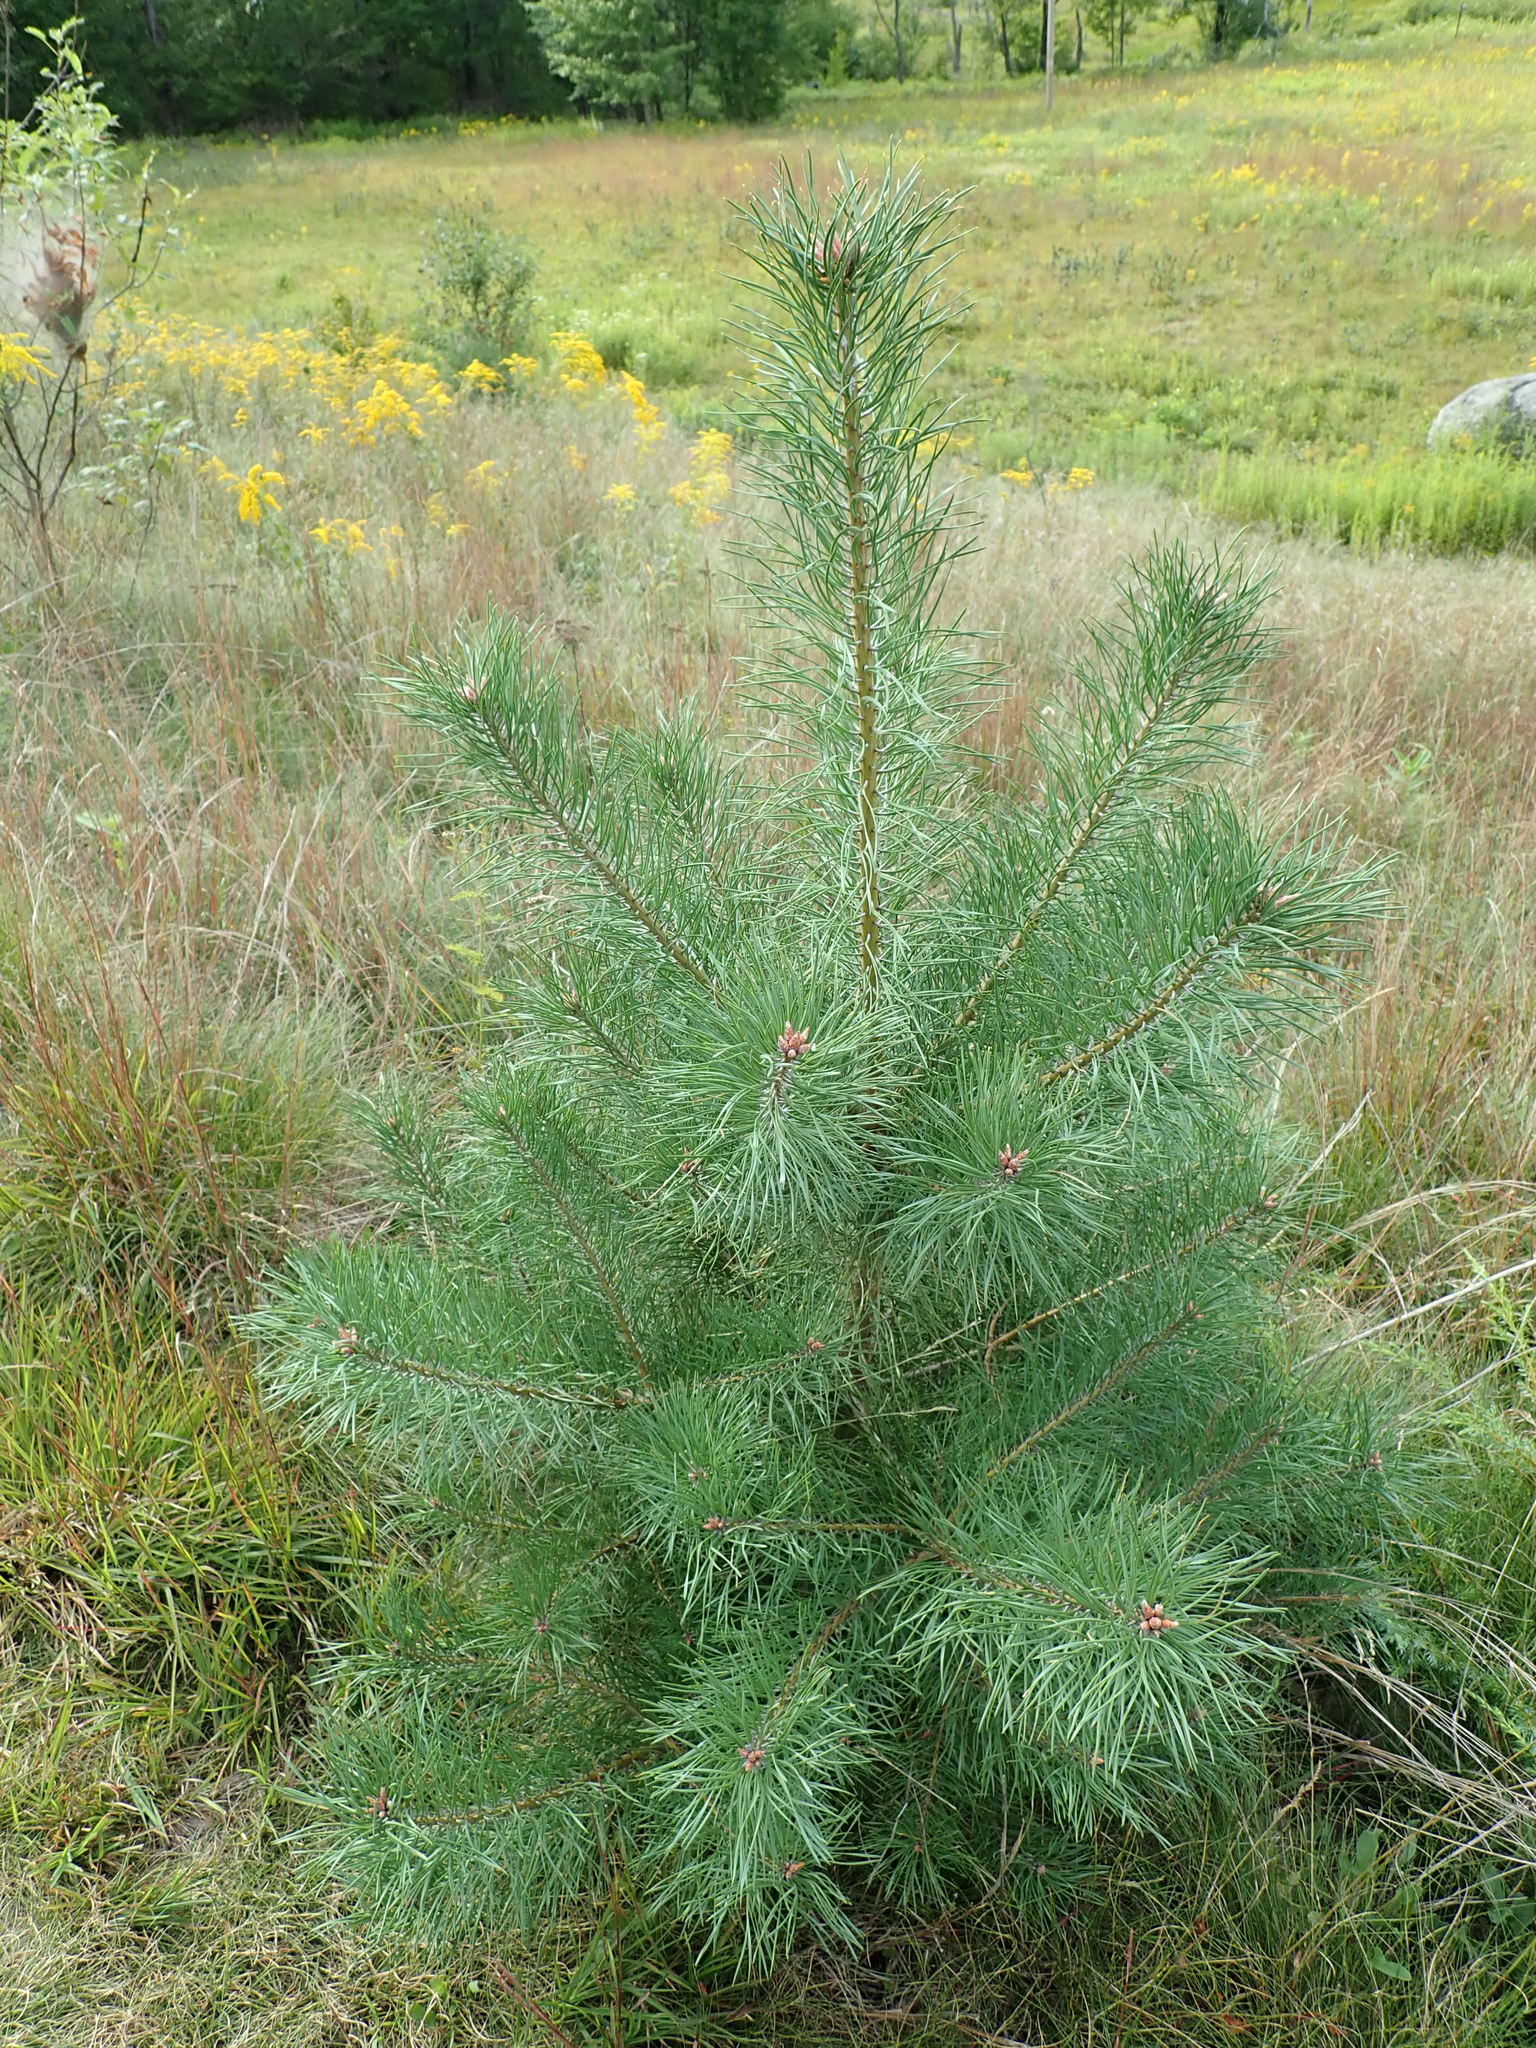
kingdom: Plantae
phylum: Tracheophyta
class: Pinopsida
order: Pinales
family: Pinaceae
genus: Pinus
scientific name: Pinus resinosa
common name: Norway pine
